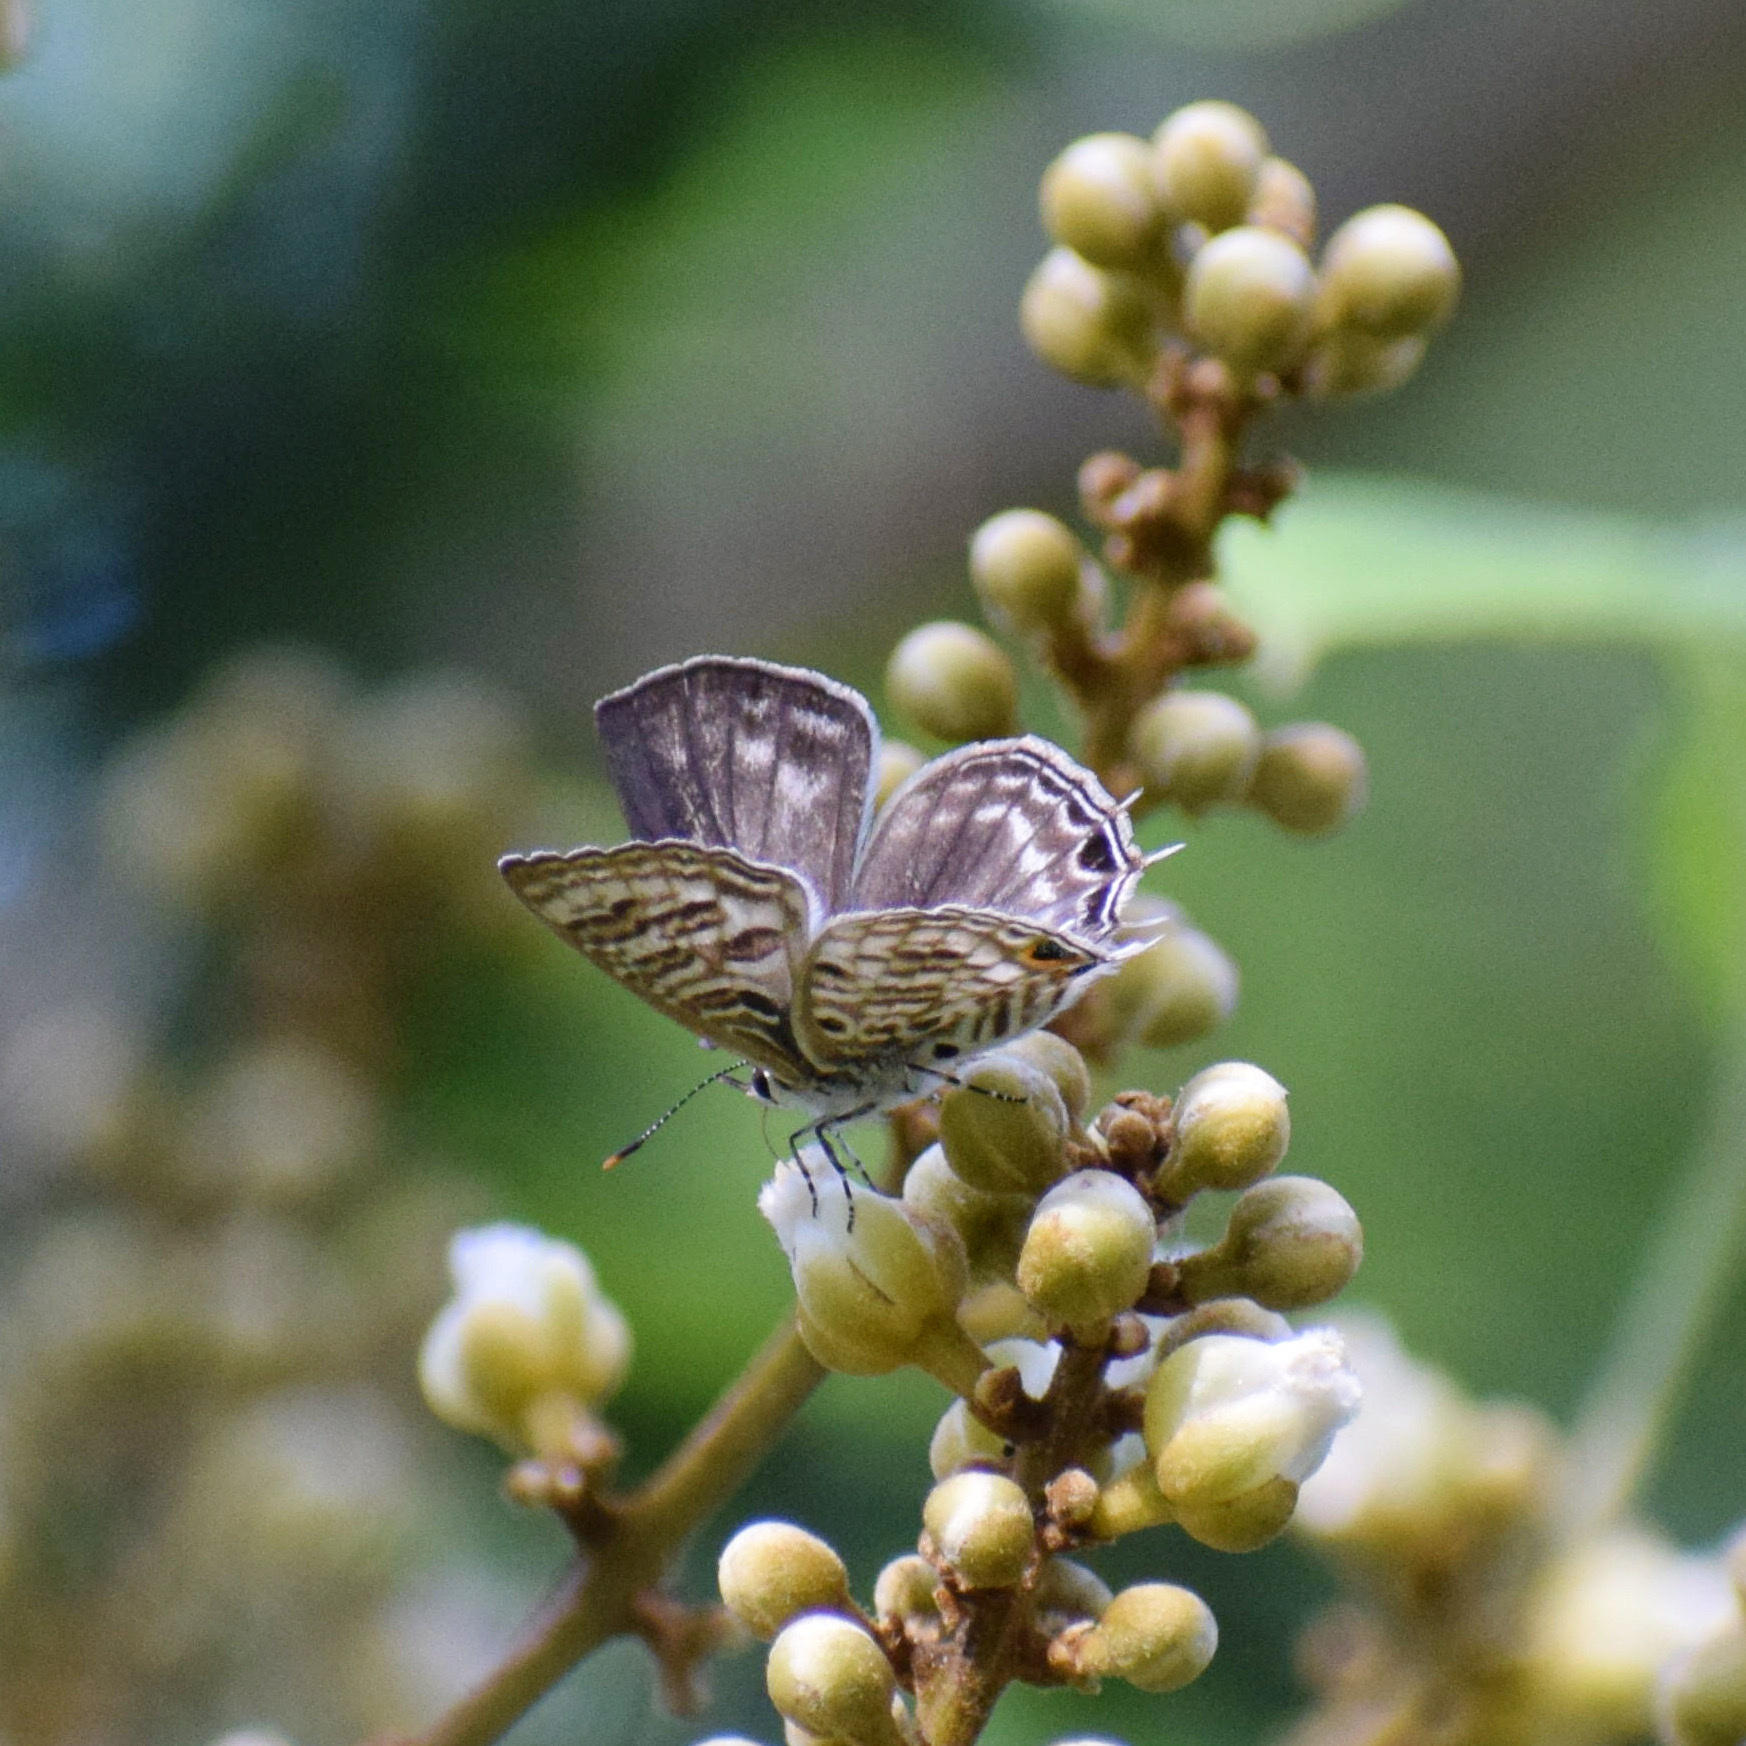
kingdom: Animalia
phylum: Arthropoda
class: Insecta
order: Lepidoptera
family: Lycaenidae
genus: Anthene
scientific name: Anthene larydas
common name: Forest hairtail
